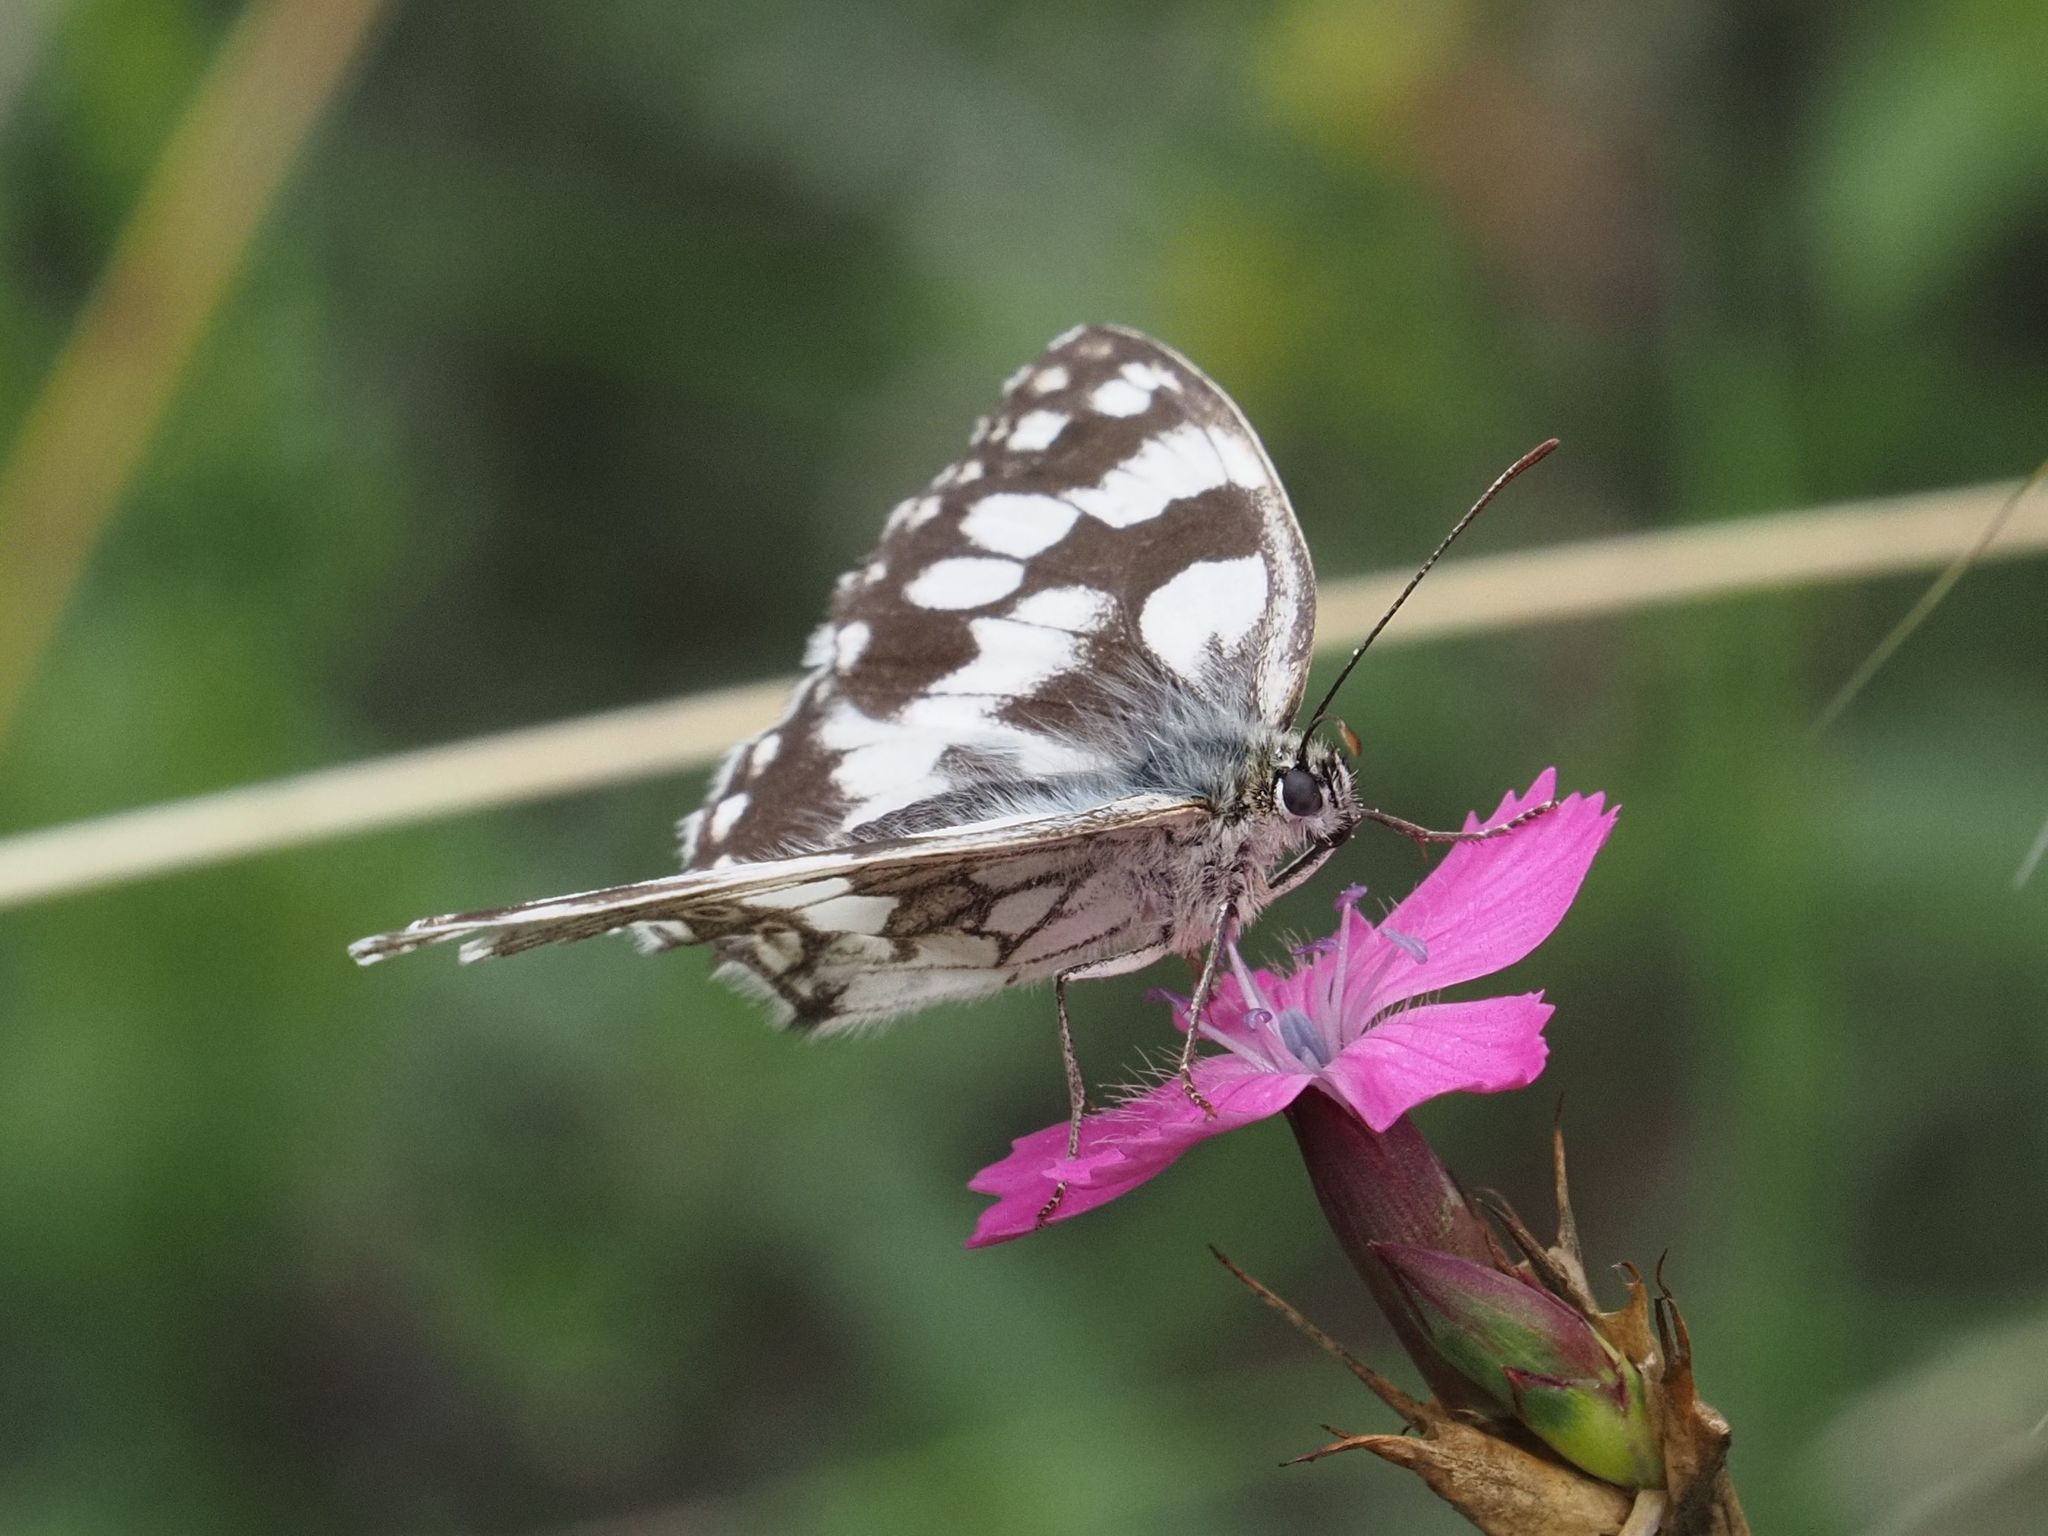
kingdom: Animalia
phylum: Arthropoda
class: Insecta
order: Lepidoptera
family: Nymphalidae
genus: Melanargia
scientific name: Melanargia galathea
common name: Marbled white
